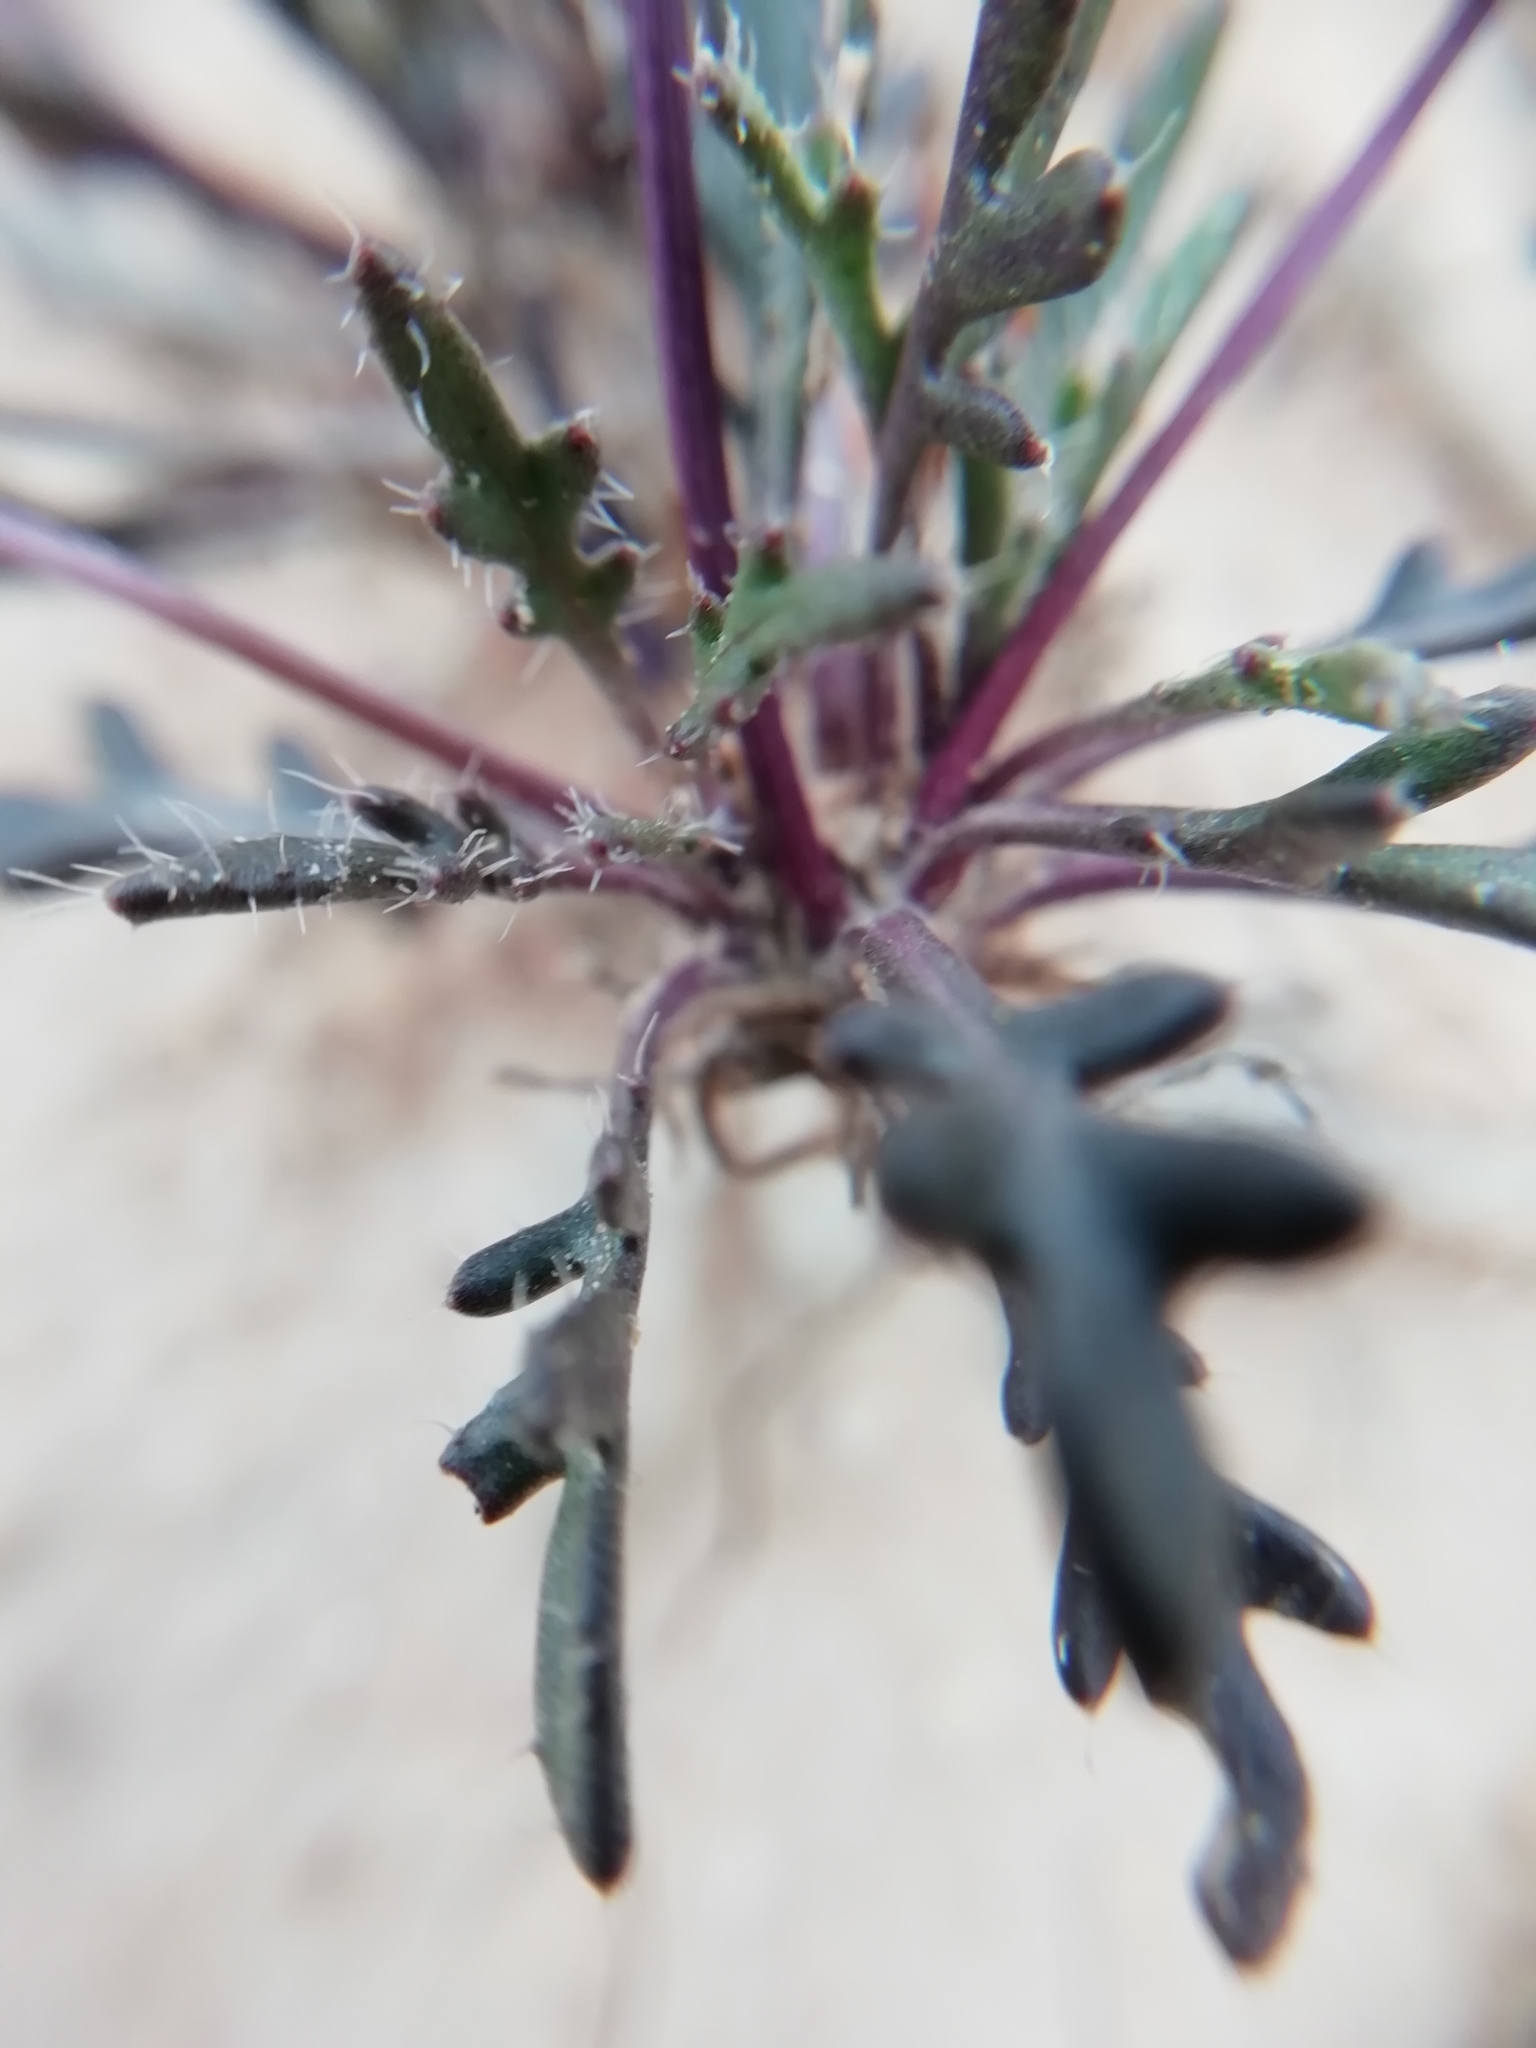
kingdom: Plantae
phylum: Tracheophyta
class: Magnoliopsida
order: Brassicales
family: Brassicaceae
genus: Brassica
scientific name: Brassica repanda
